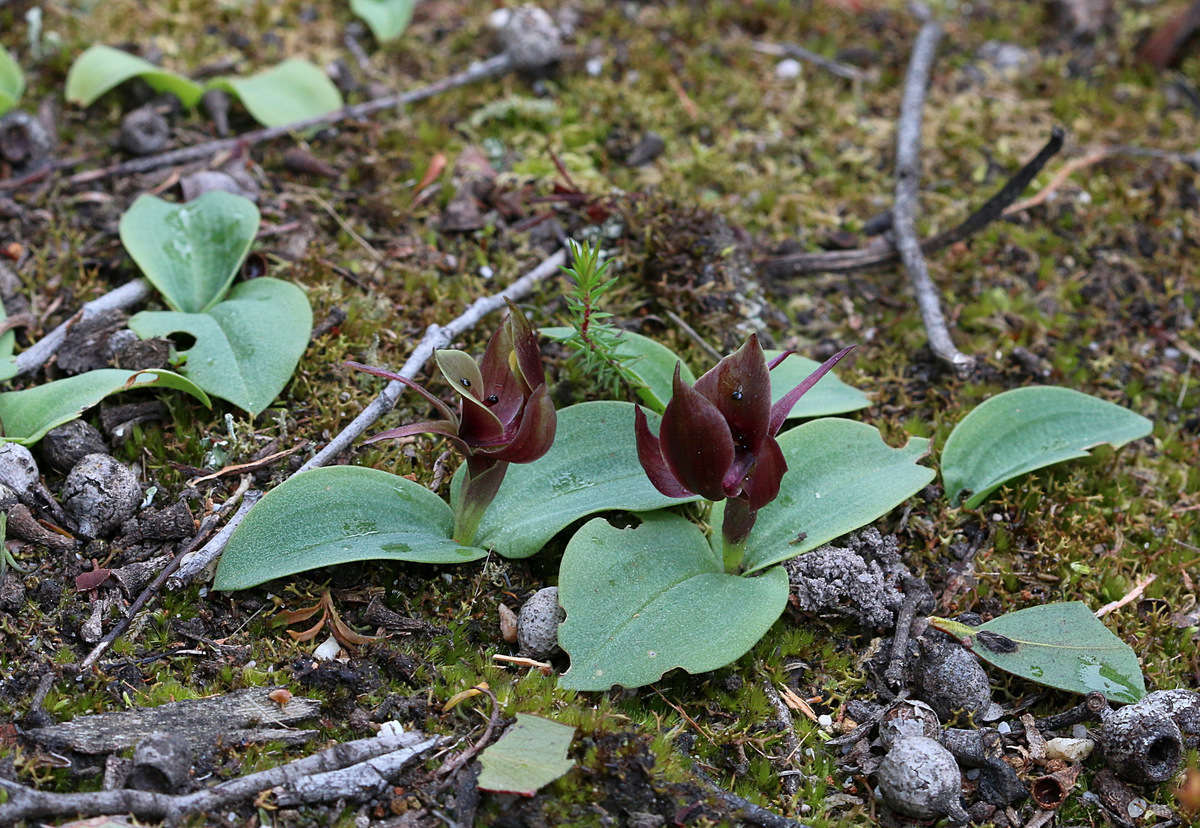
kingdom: Plantae
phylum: Tracheophyta
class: Liliopsida
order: Asparagales
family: Orchidaceae
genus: Chiloglottis
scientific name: Chiloglottis valida
